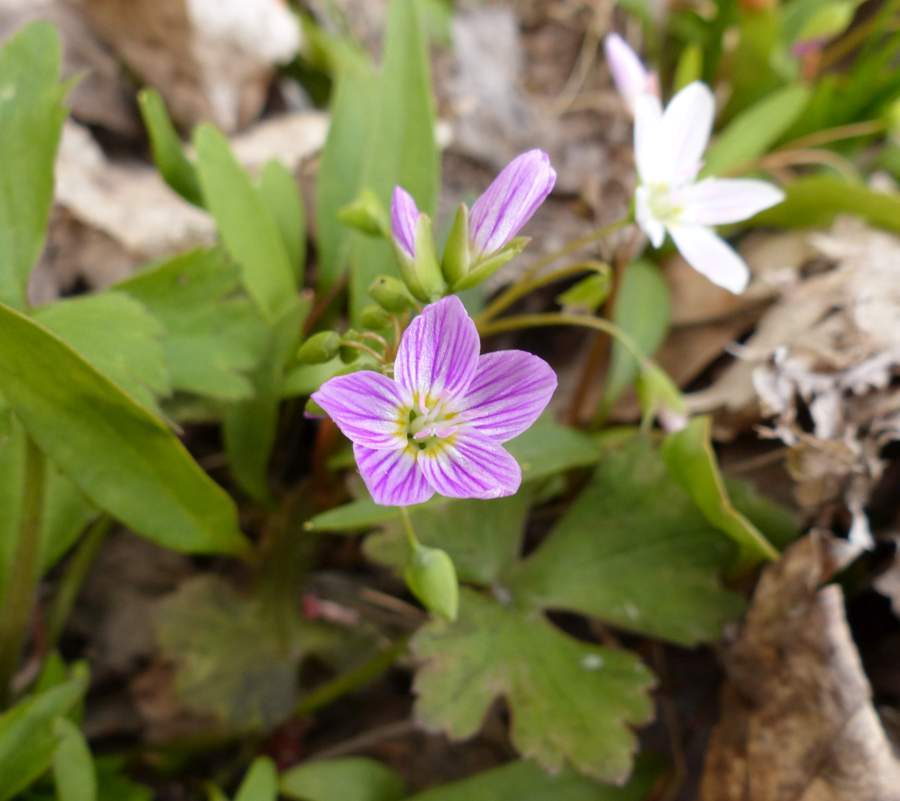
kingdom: Plantae
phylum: Tracheophyta
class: Magnoliopsida
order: Caryophyllales
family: Montiaceae
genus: Claytonia
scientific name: Claytonia caroliniana
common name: Carolina spring beauty
